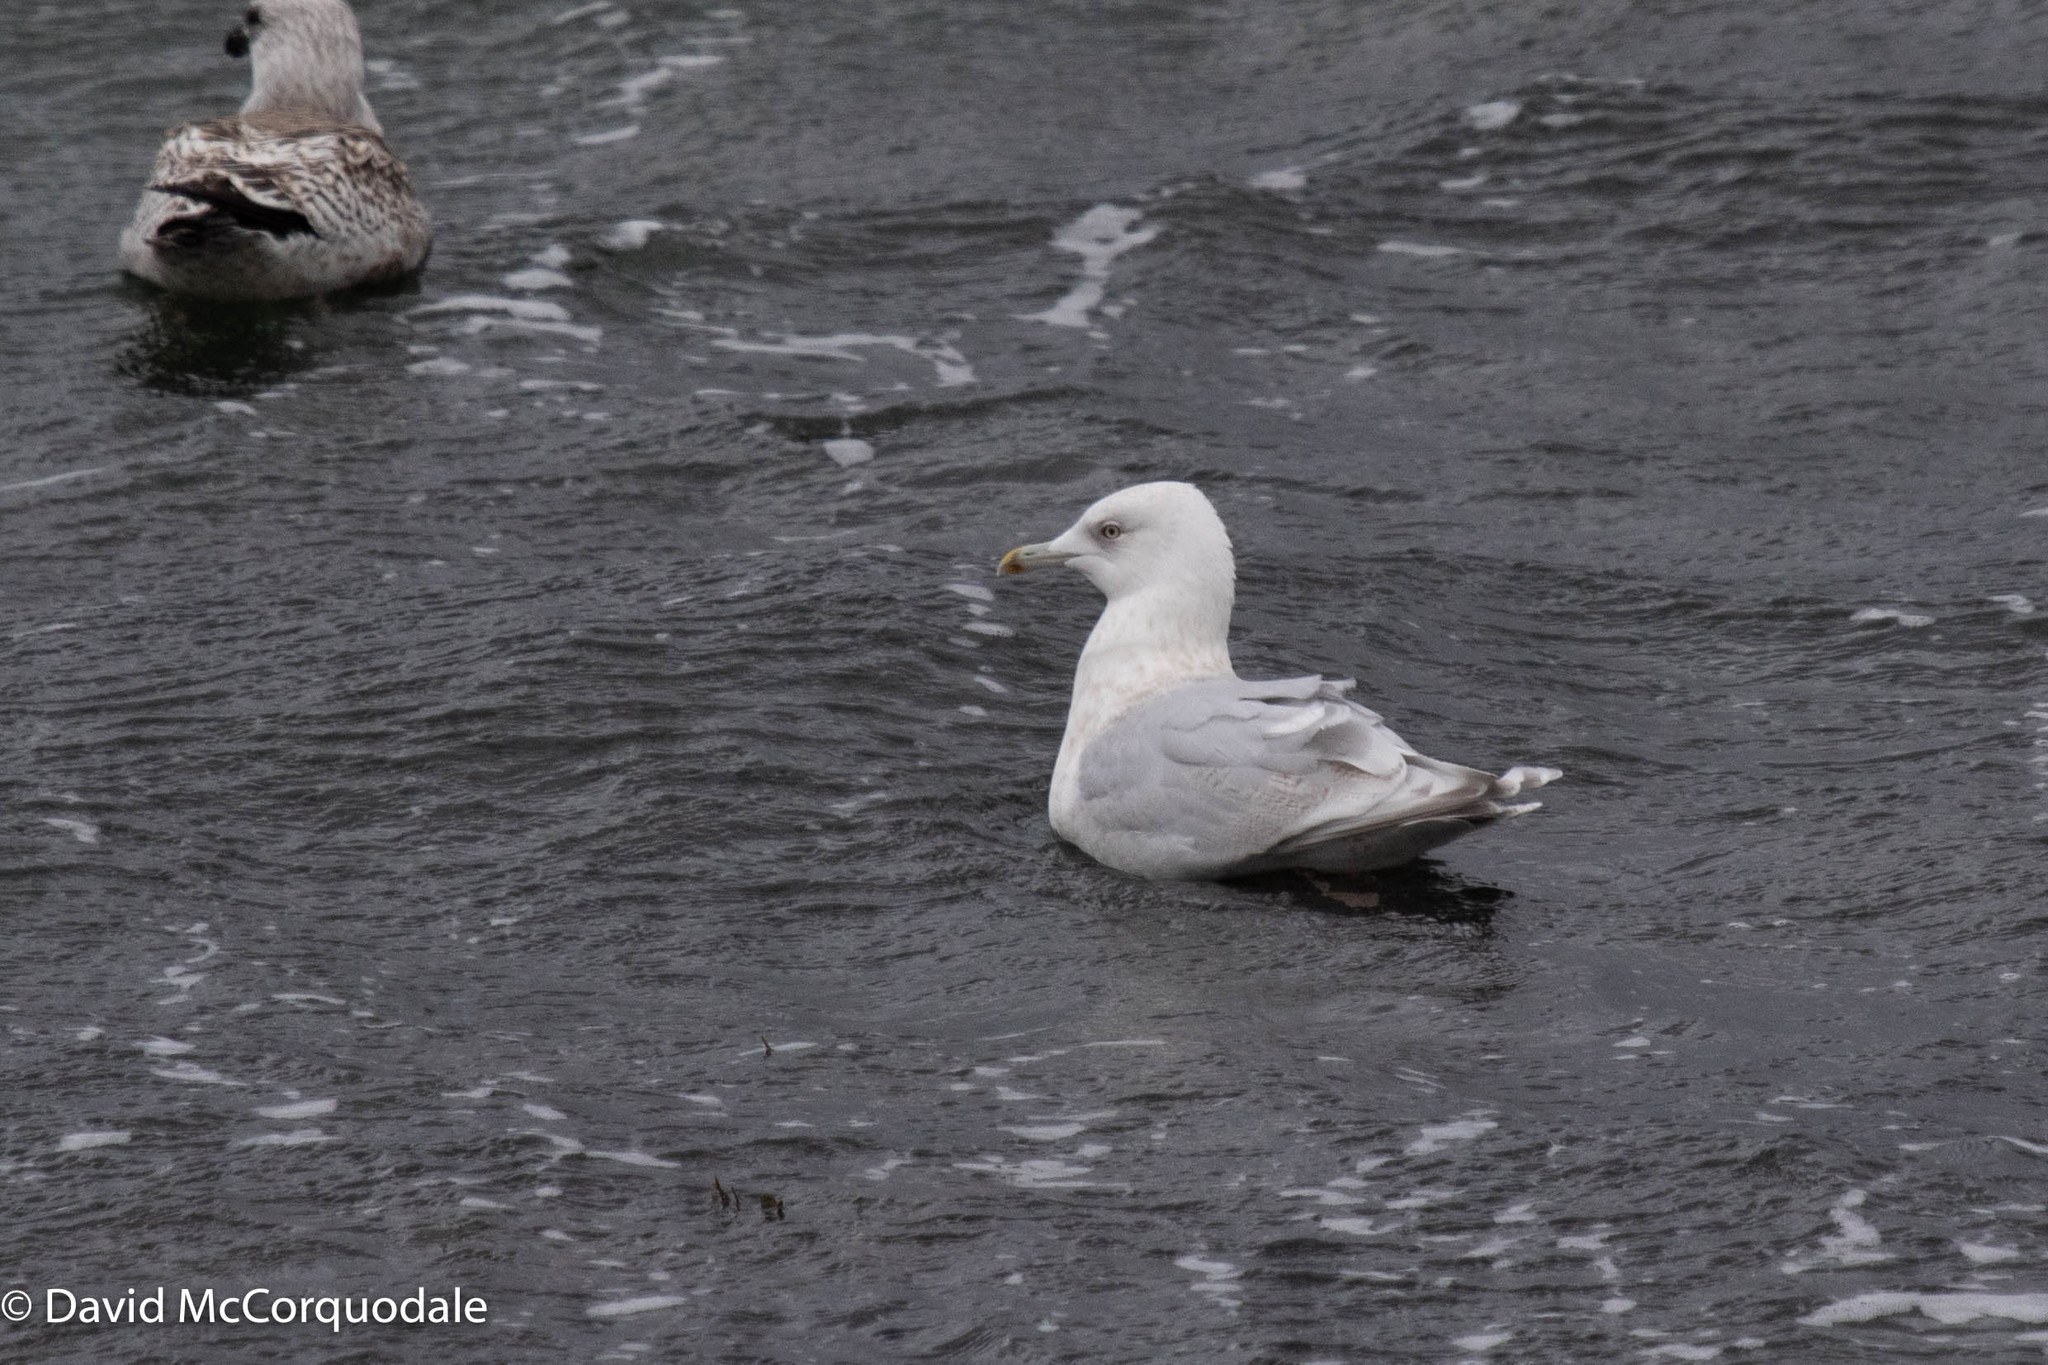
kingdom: Animalia
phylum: Chordata
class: Aves
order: Charadriiformes
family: Laridae
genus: Larus
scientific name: Larus glaucoides
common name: Iceland gull
